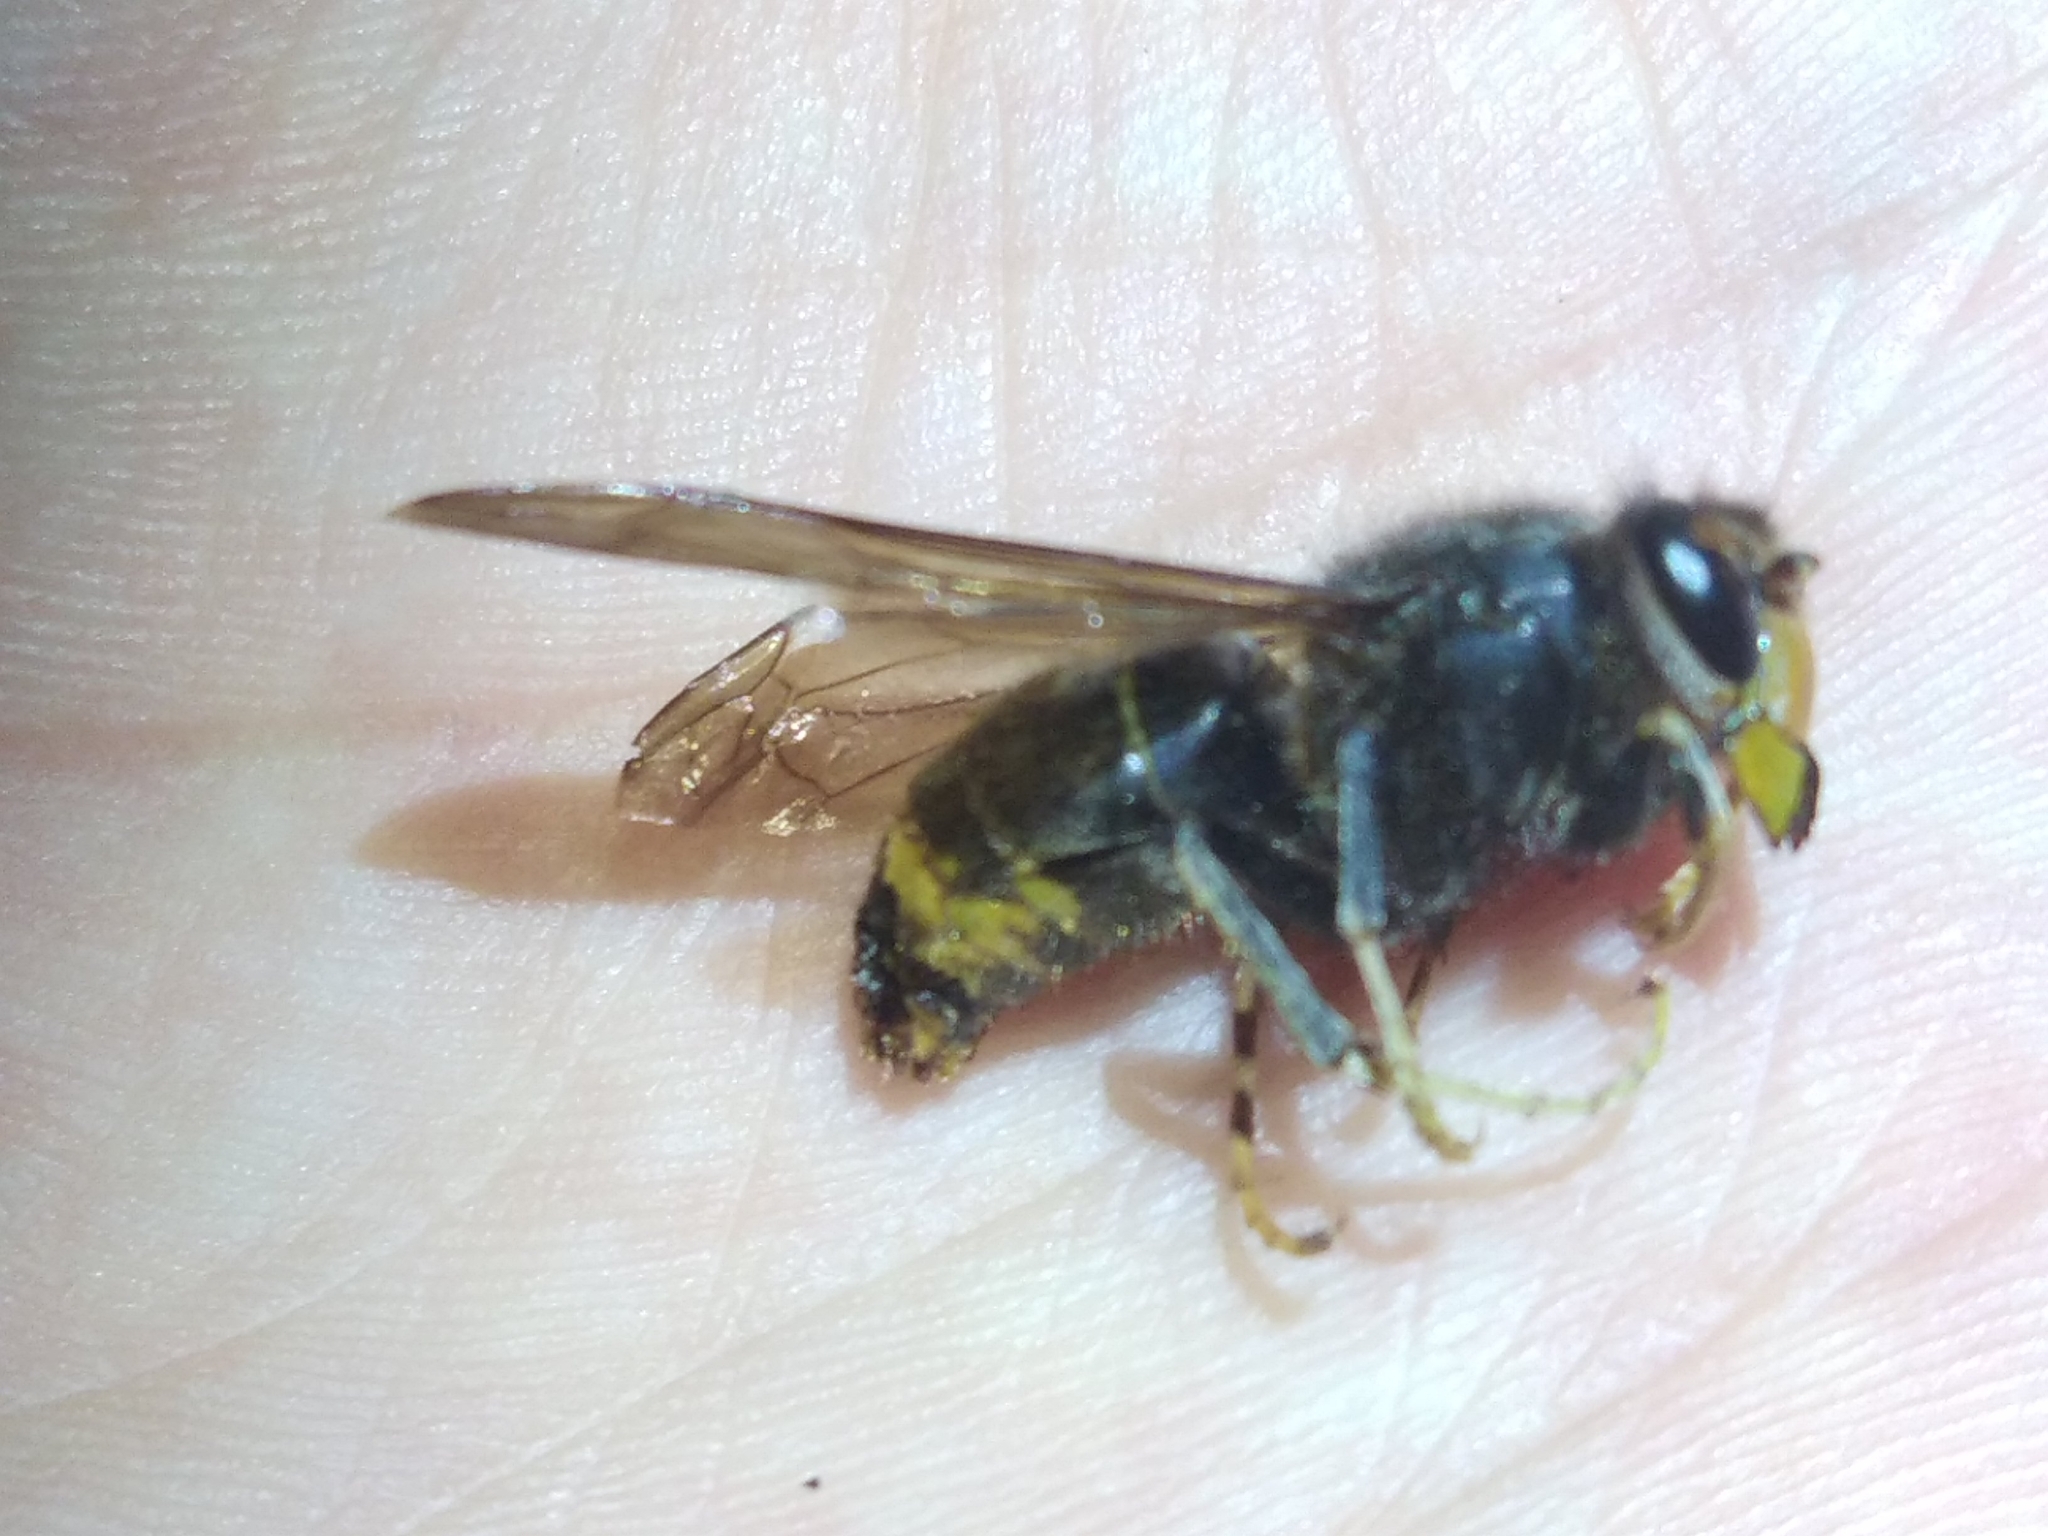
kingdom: Animalia
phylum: Arthropoda
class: Insecta
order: Hymenoptera
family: Vespidae
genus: Vespa
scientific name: Vespa velutina
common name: Asian hornet
